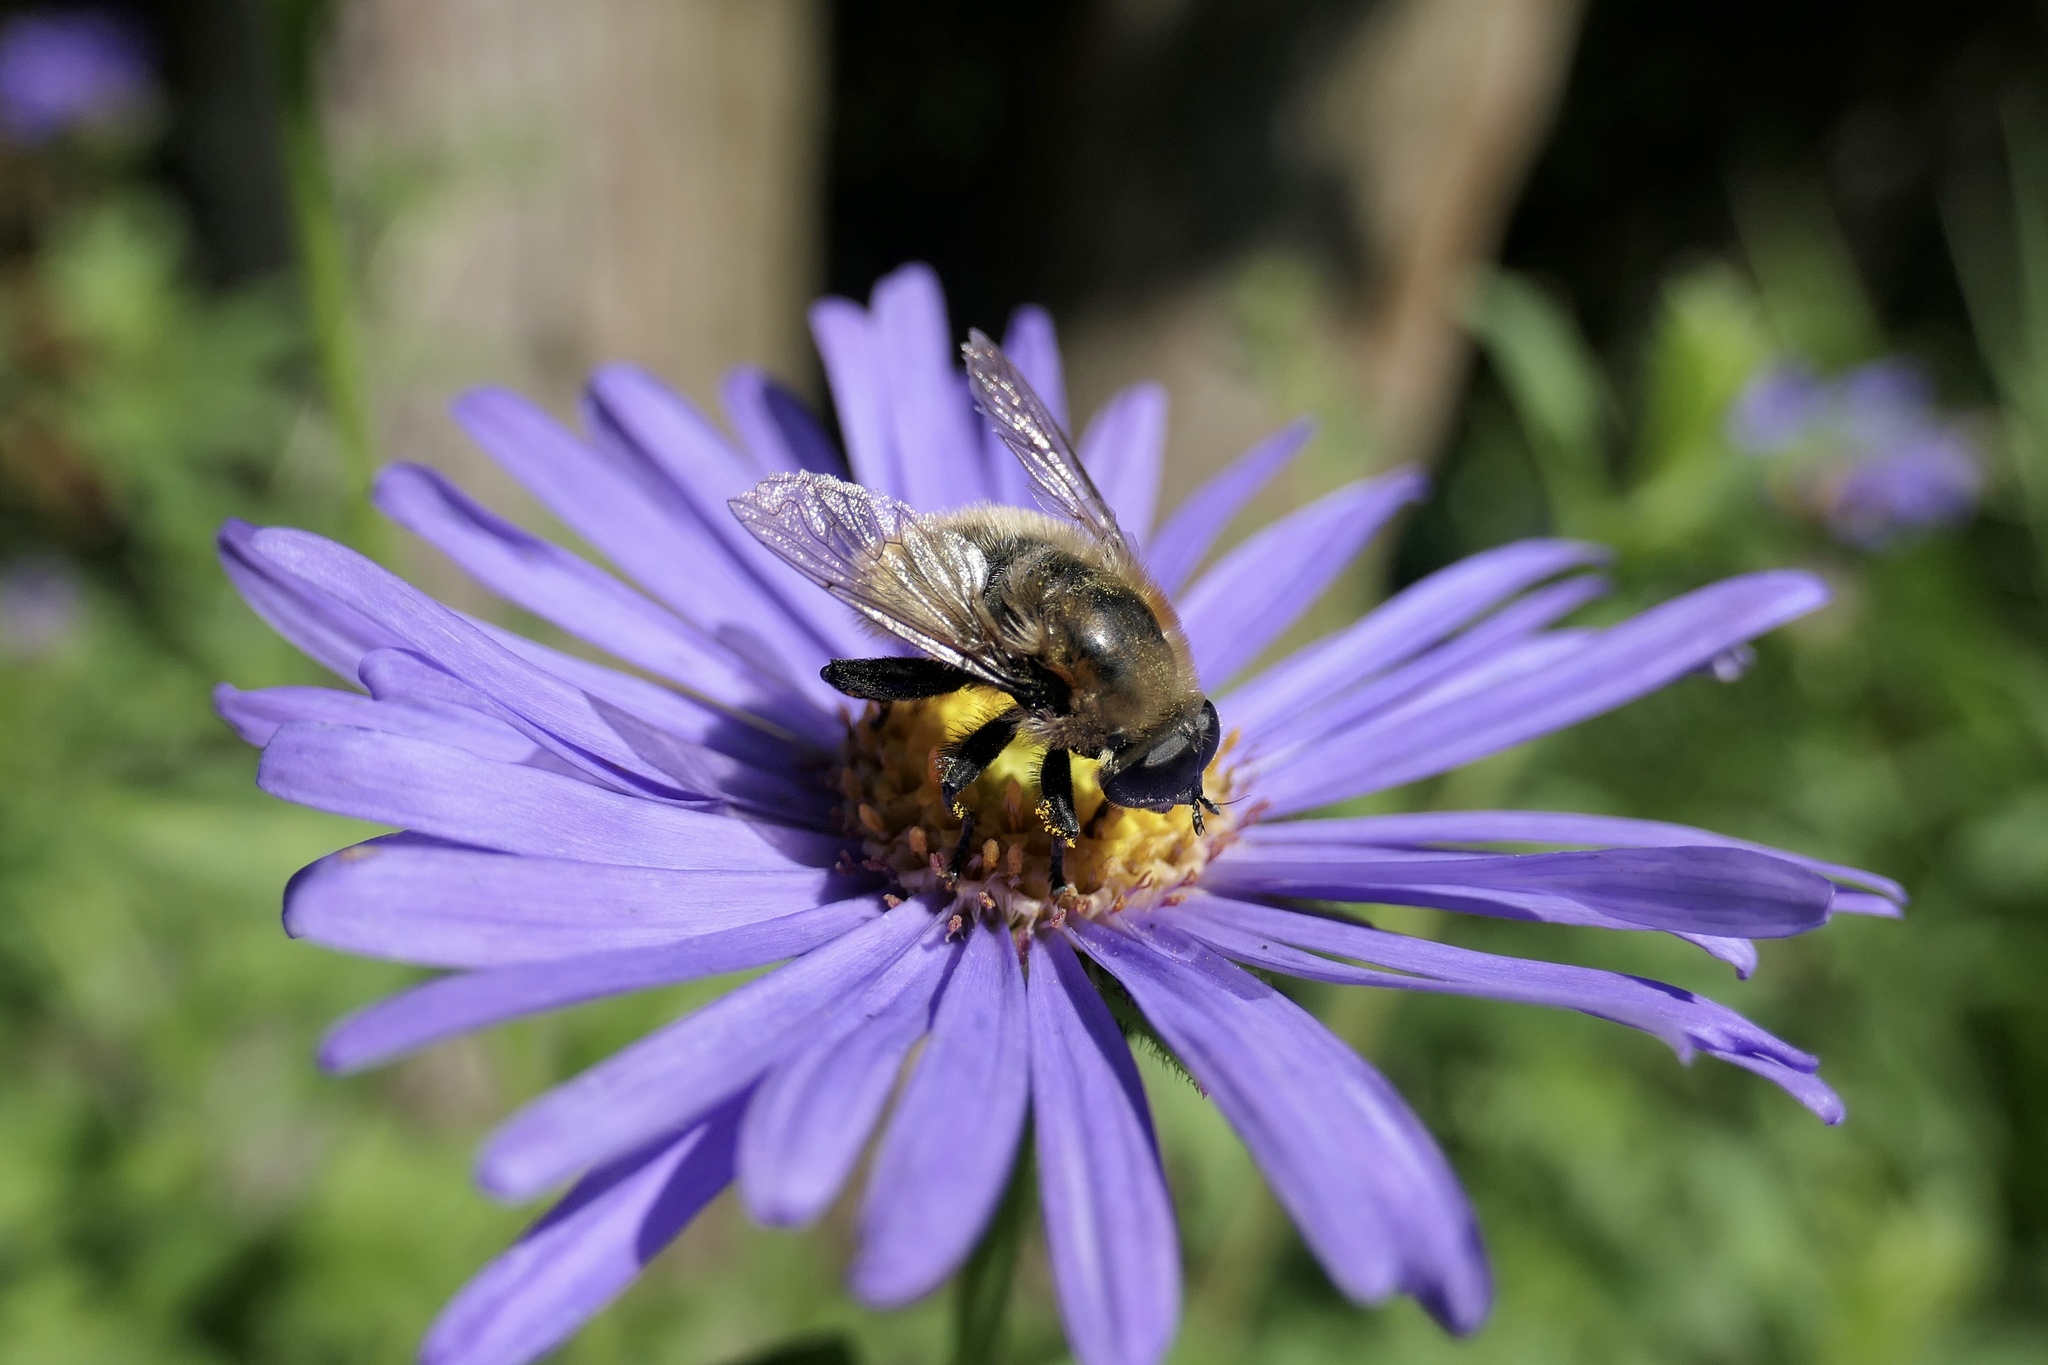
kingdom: Animalia
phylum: Arthropoda
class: Insecta
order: Diptera
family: Syrphidae
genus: Merodon
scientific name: Merodon equestris
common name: Greater bulb-fly
